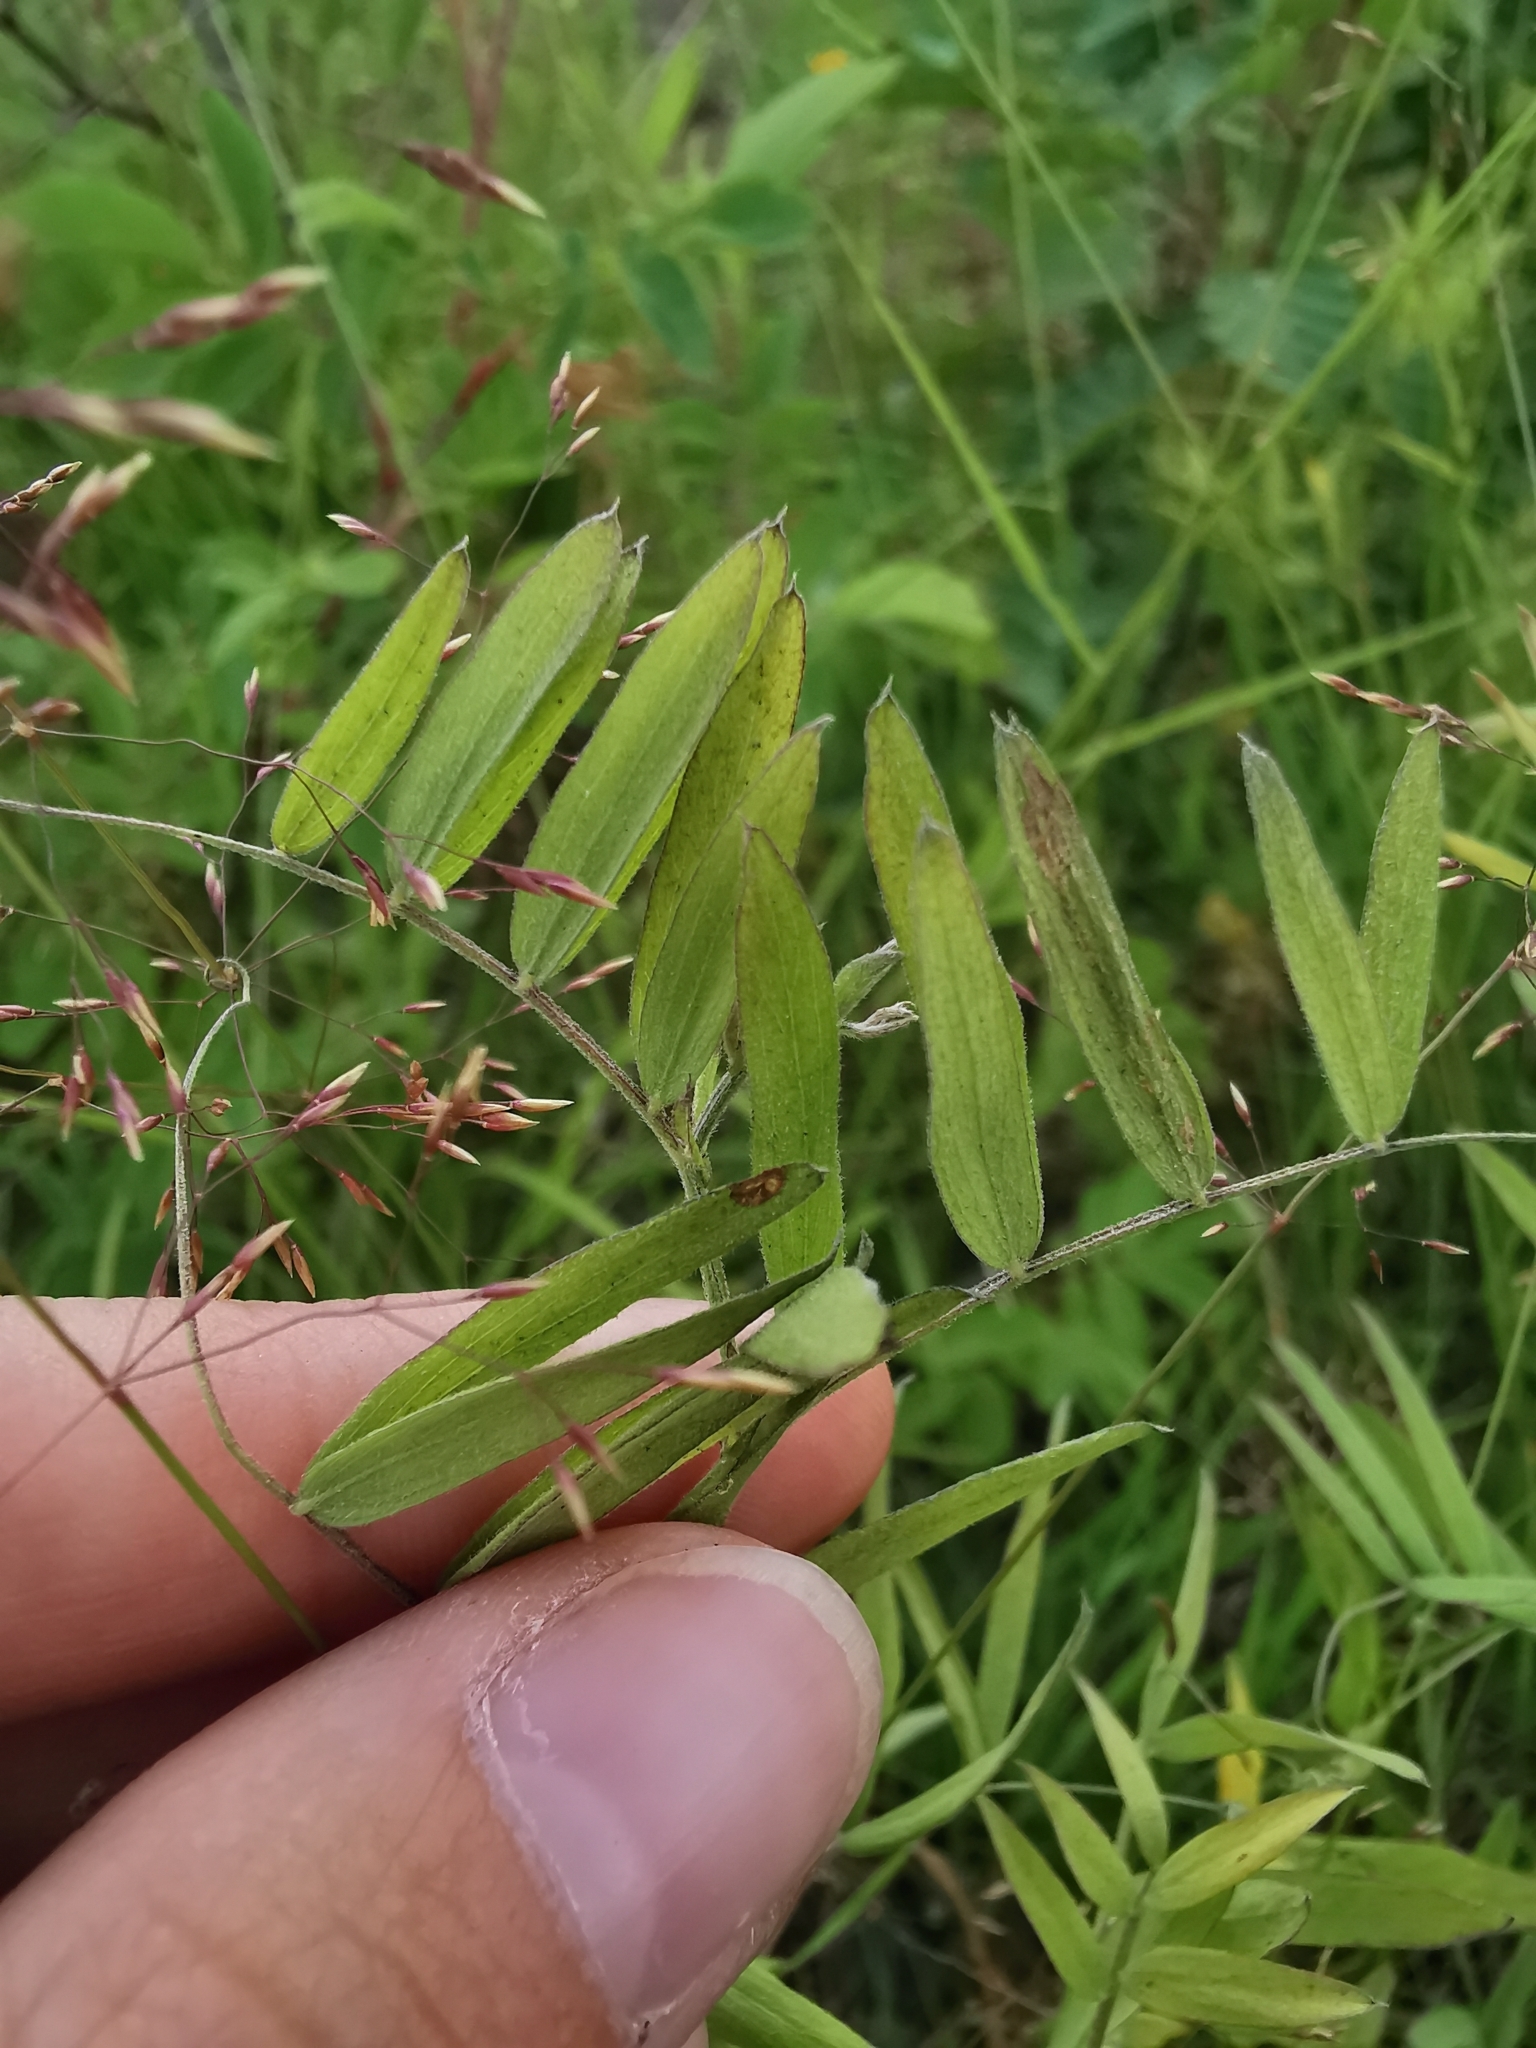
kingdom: Plantae
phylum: Tracheophyta
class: Magnoliopsida
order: Fabales
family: Fabaceae
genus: Lathyrus
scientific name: Lathyrus palustris
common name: Marsh pea
